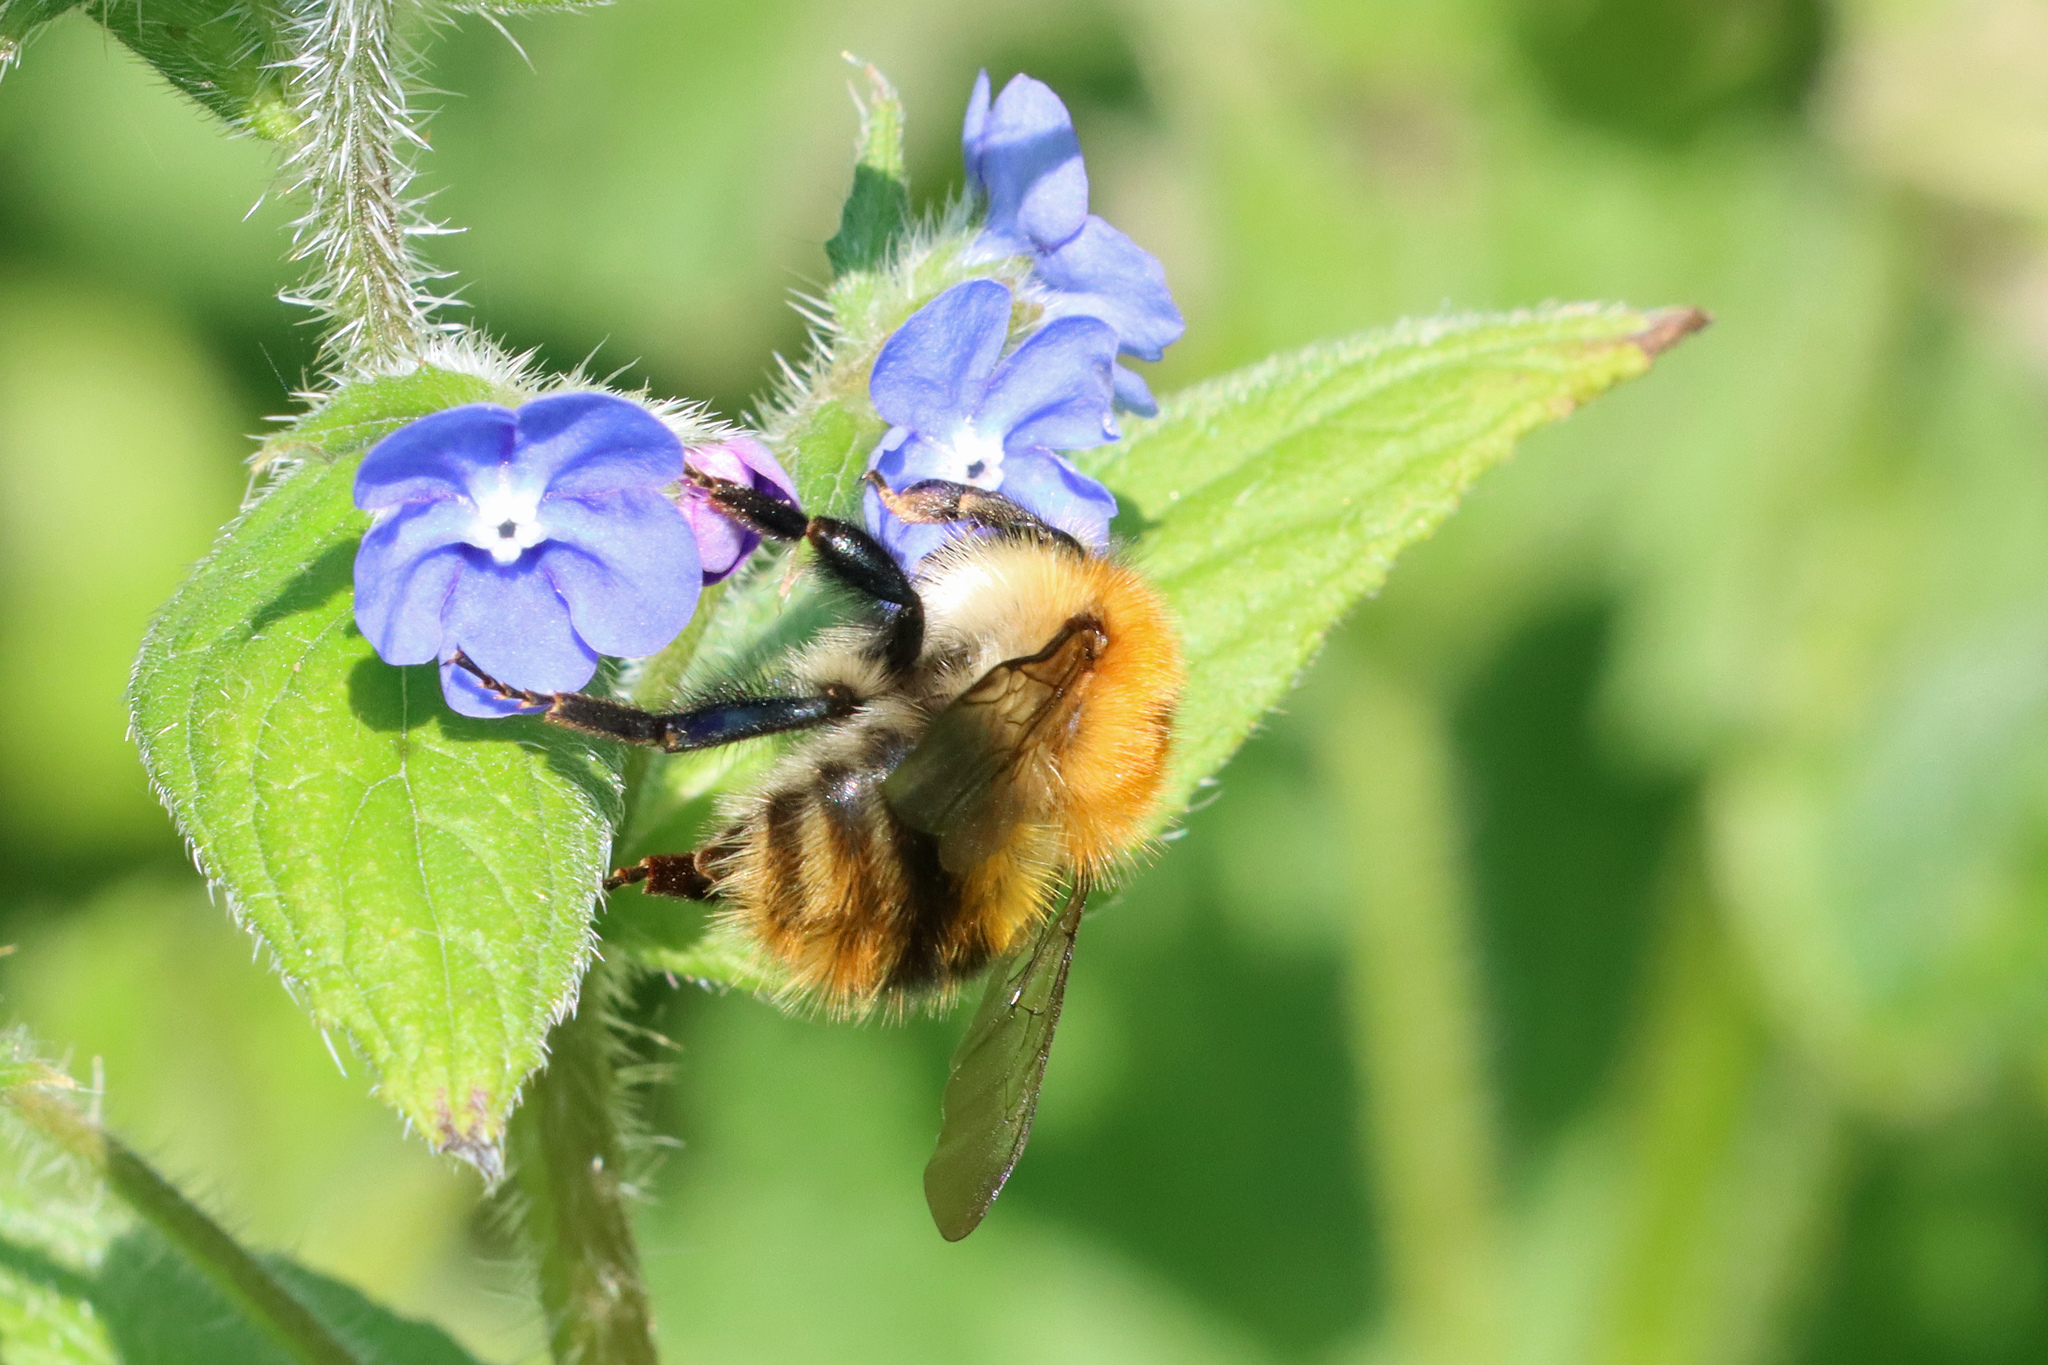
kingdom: Animalia
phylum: Arthropoda
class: Insecta
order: Hymenoptera
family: Apidae
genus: Bombus
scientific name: Bombus pascuorum
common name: Common carder bee
